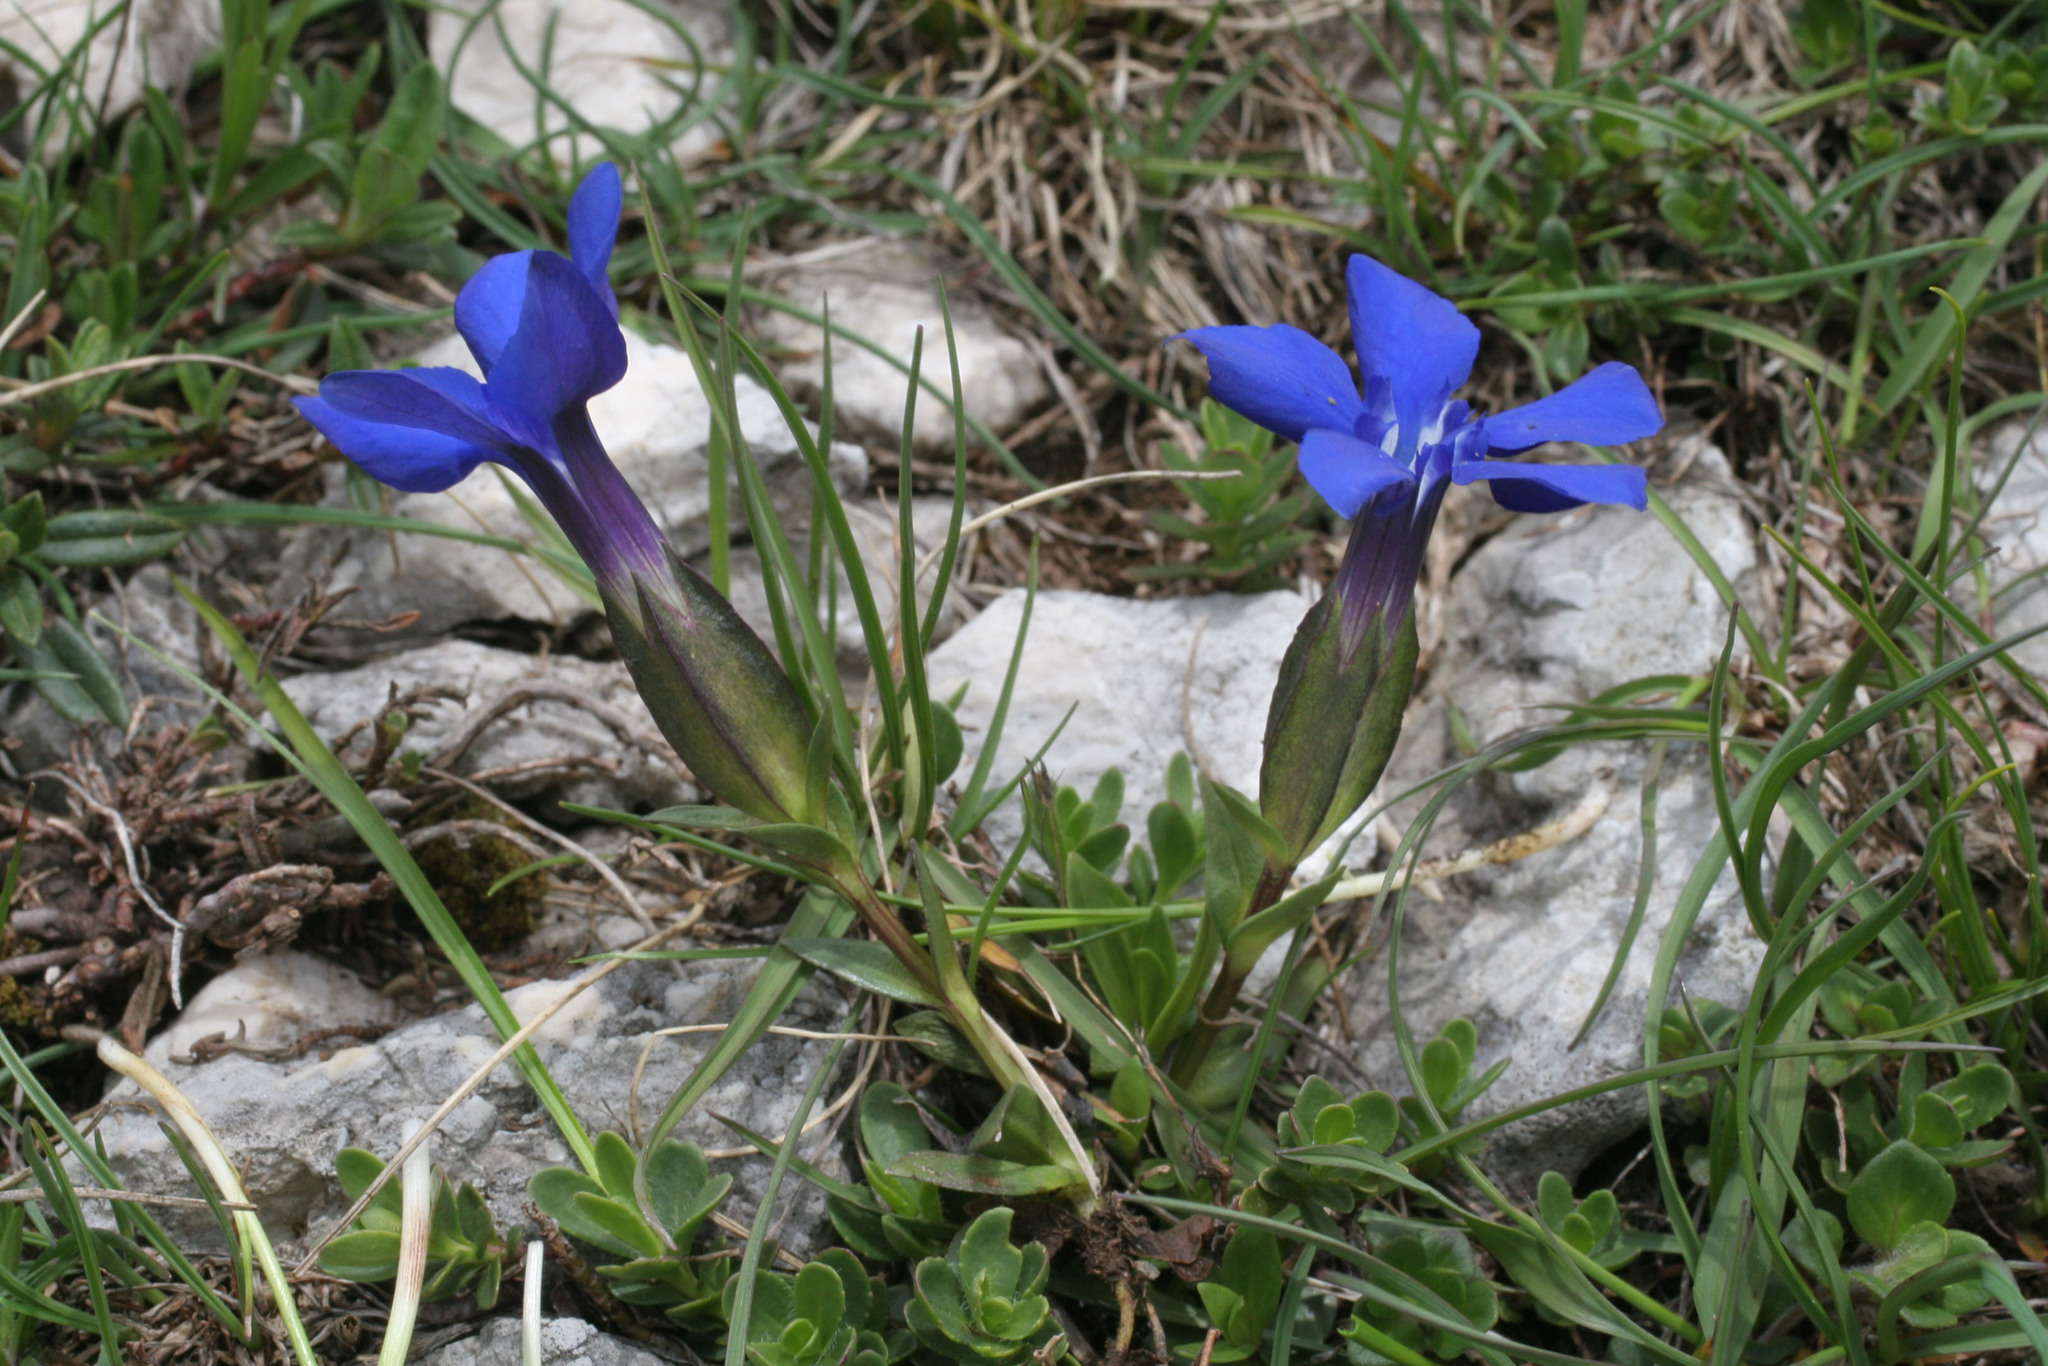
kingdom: Plantae
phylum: Tracheophyta
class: Magnoliopsida
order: Gentianales
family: Gentianaceae
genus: Gentiana
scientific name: Gentiana verna
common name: Spring gentian
